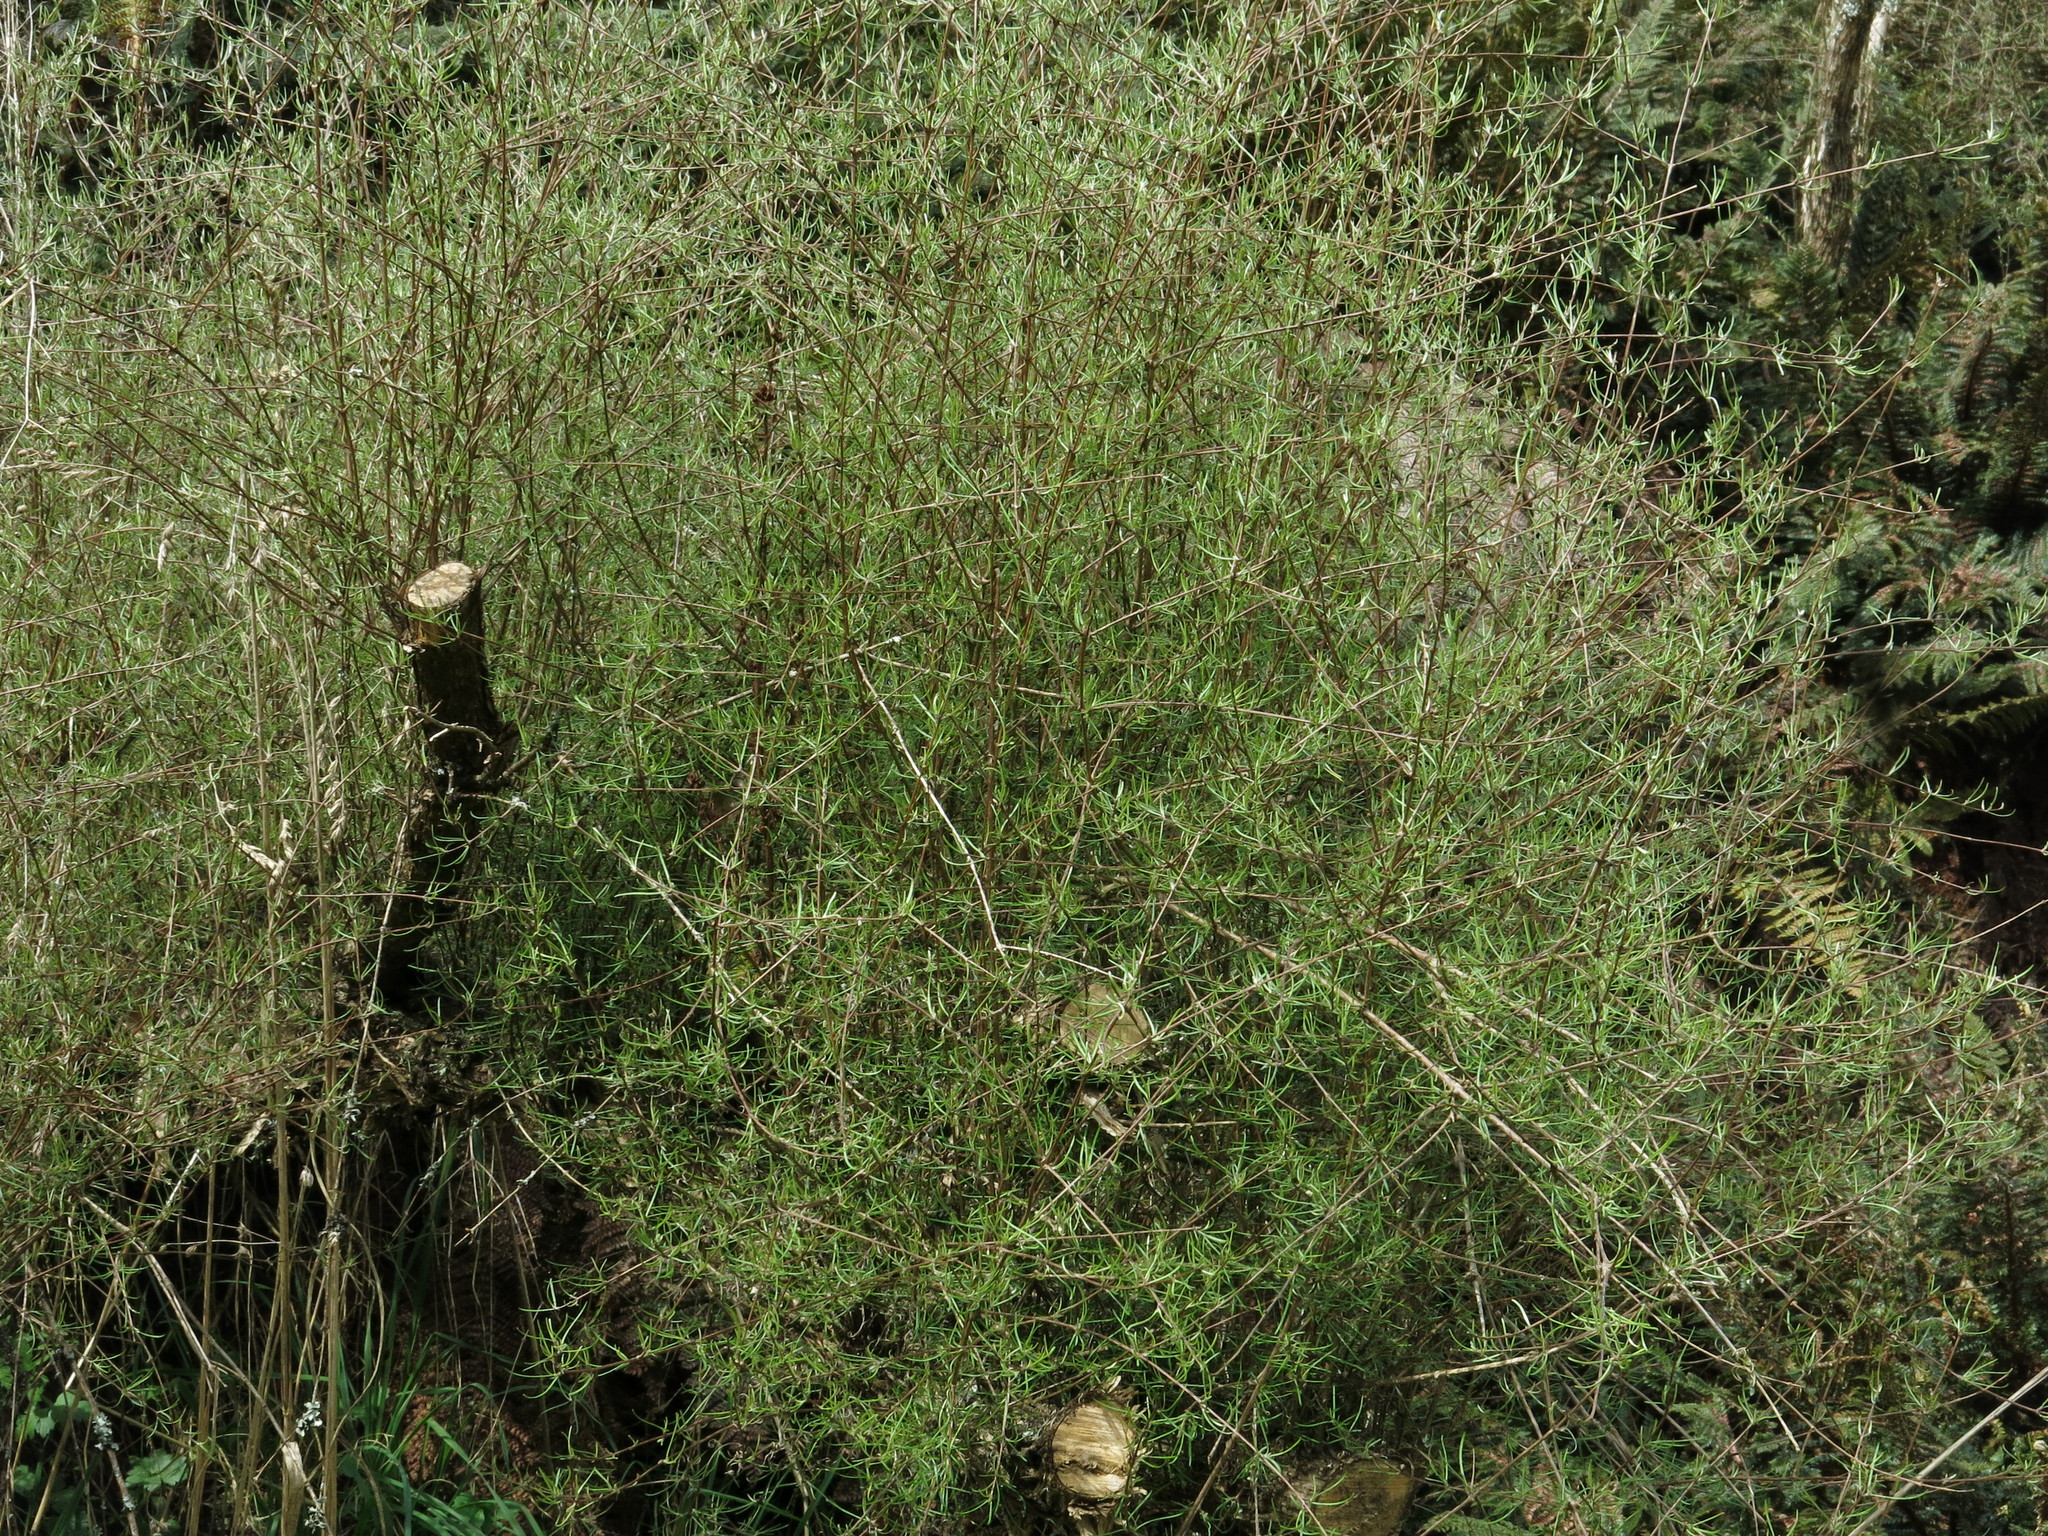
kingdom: Plantae
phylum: Tracheophyta
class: Magnoliopsida
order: Asterales
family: Asteraceae
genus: Olearia
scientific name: Olearia lineata
